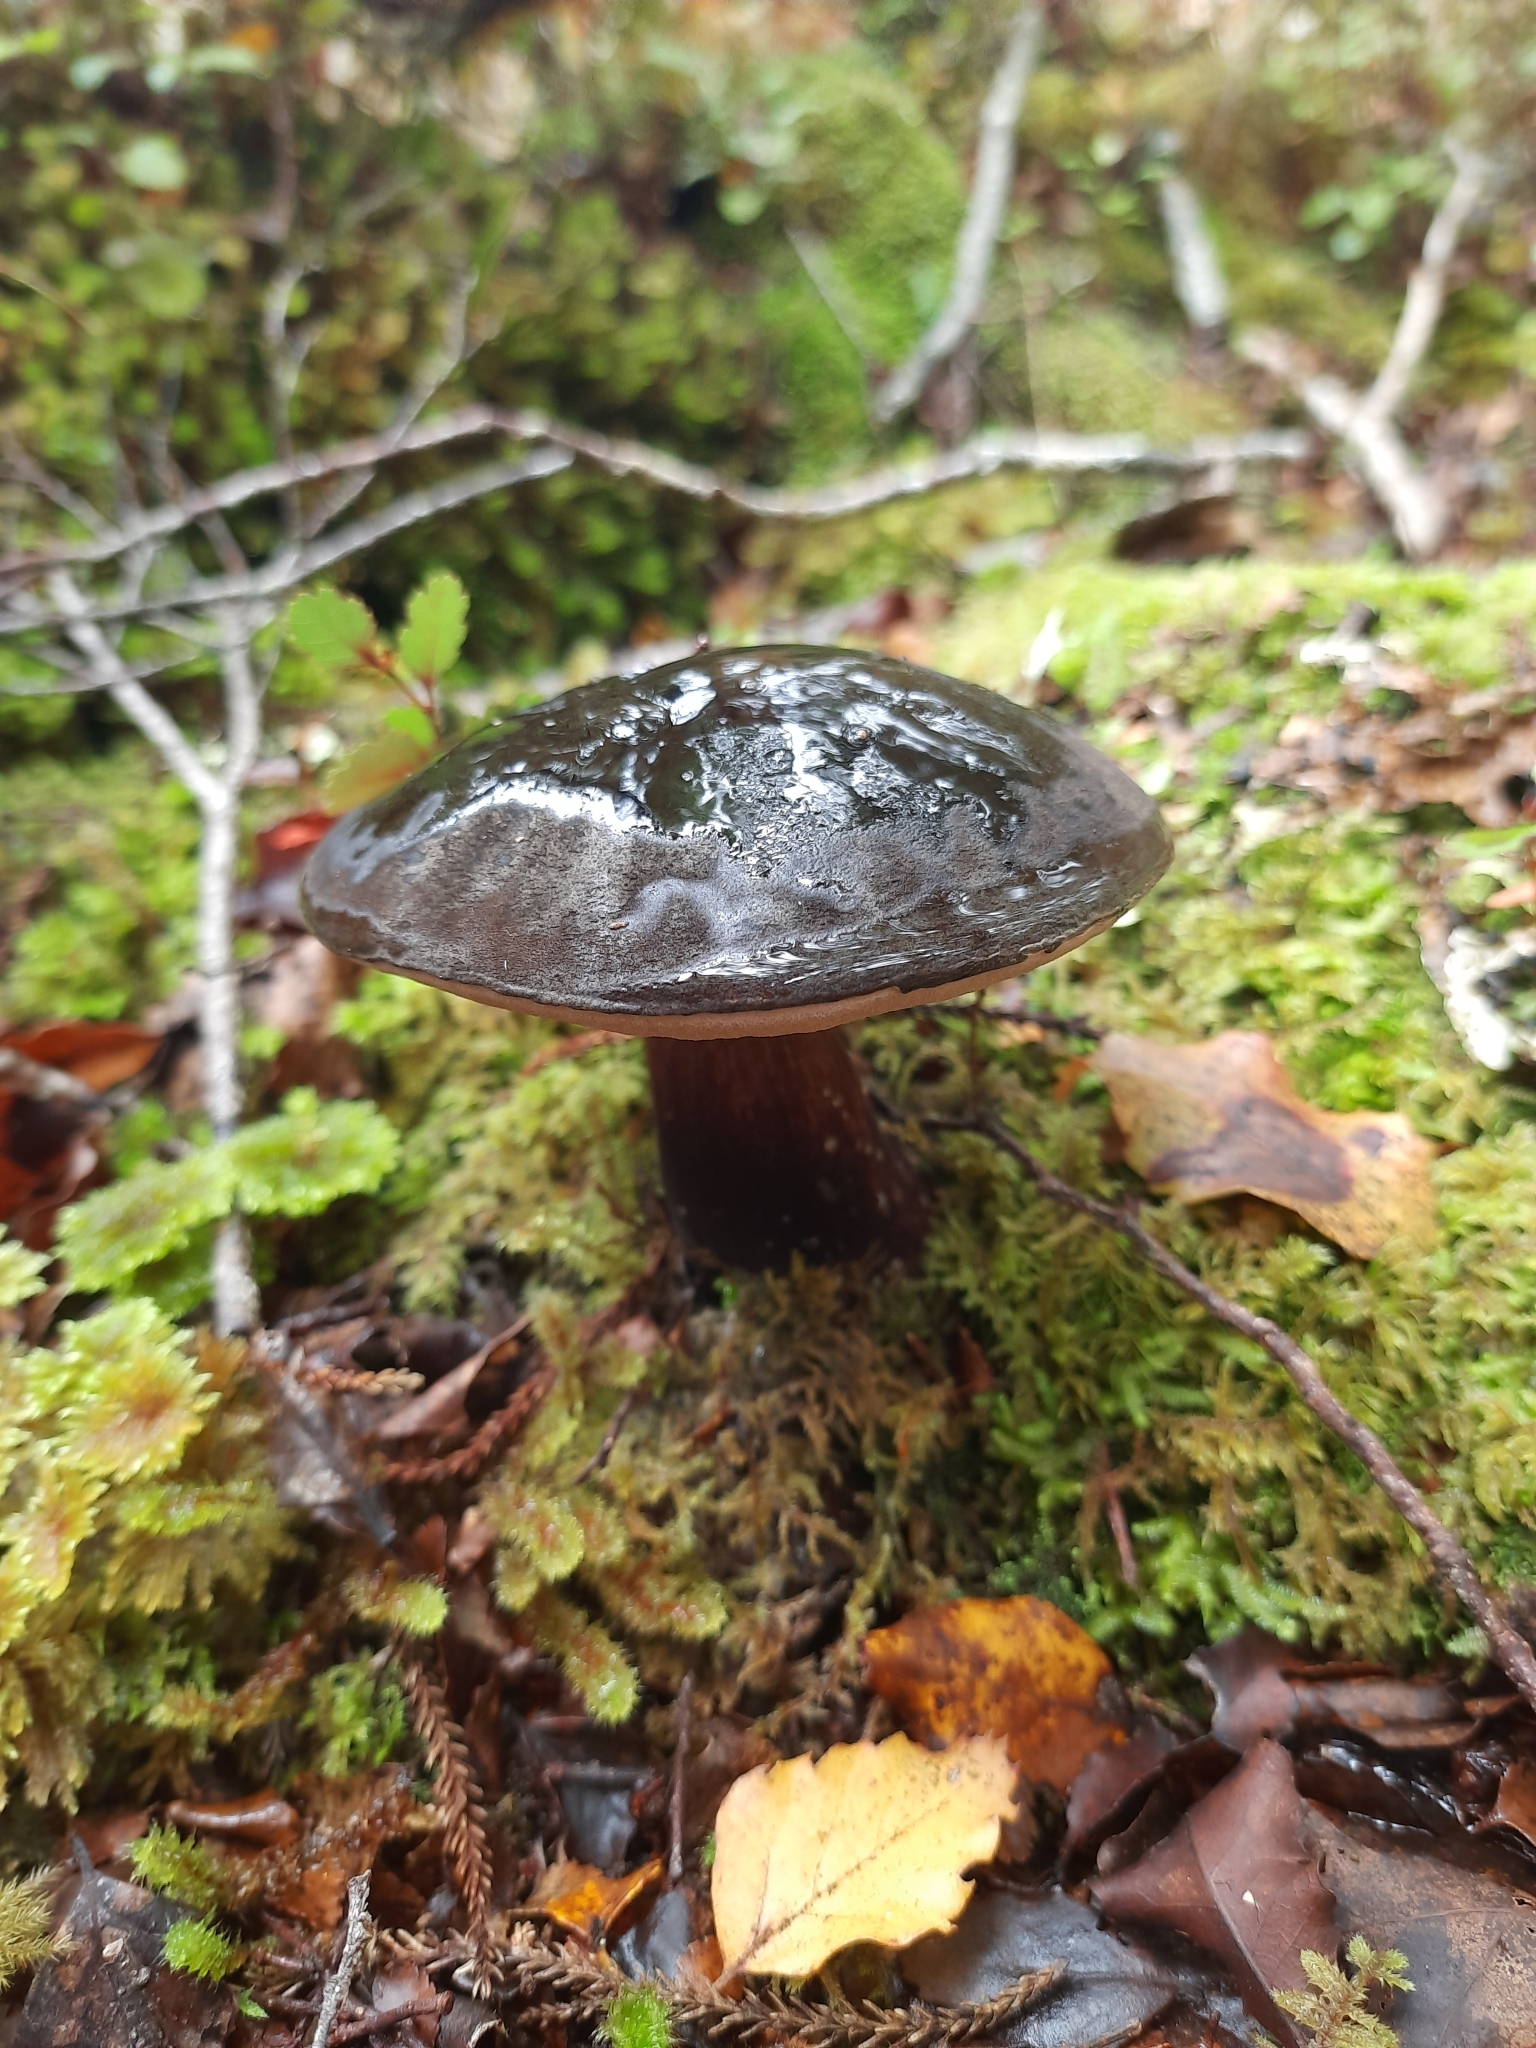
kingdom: Fungi
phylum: Basidiomycota
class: Agaricomycetes
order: Boletales
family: Boletaceae
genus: Porphyrellus
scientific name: Porphyrellus formosus
